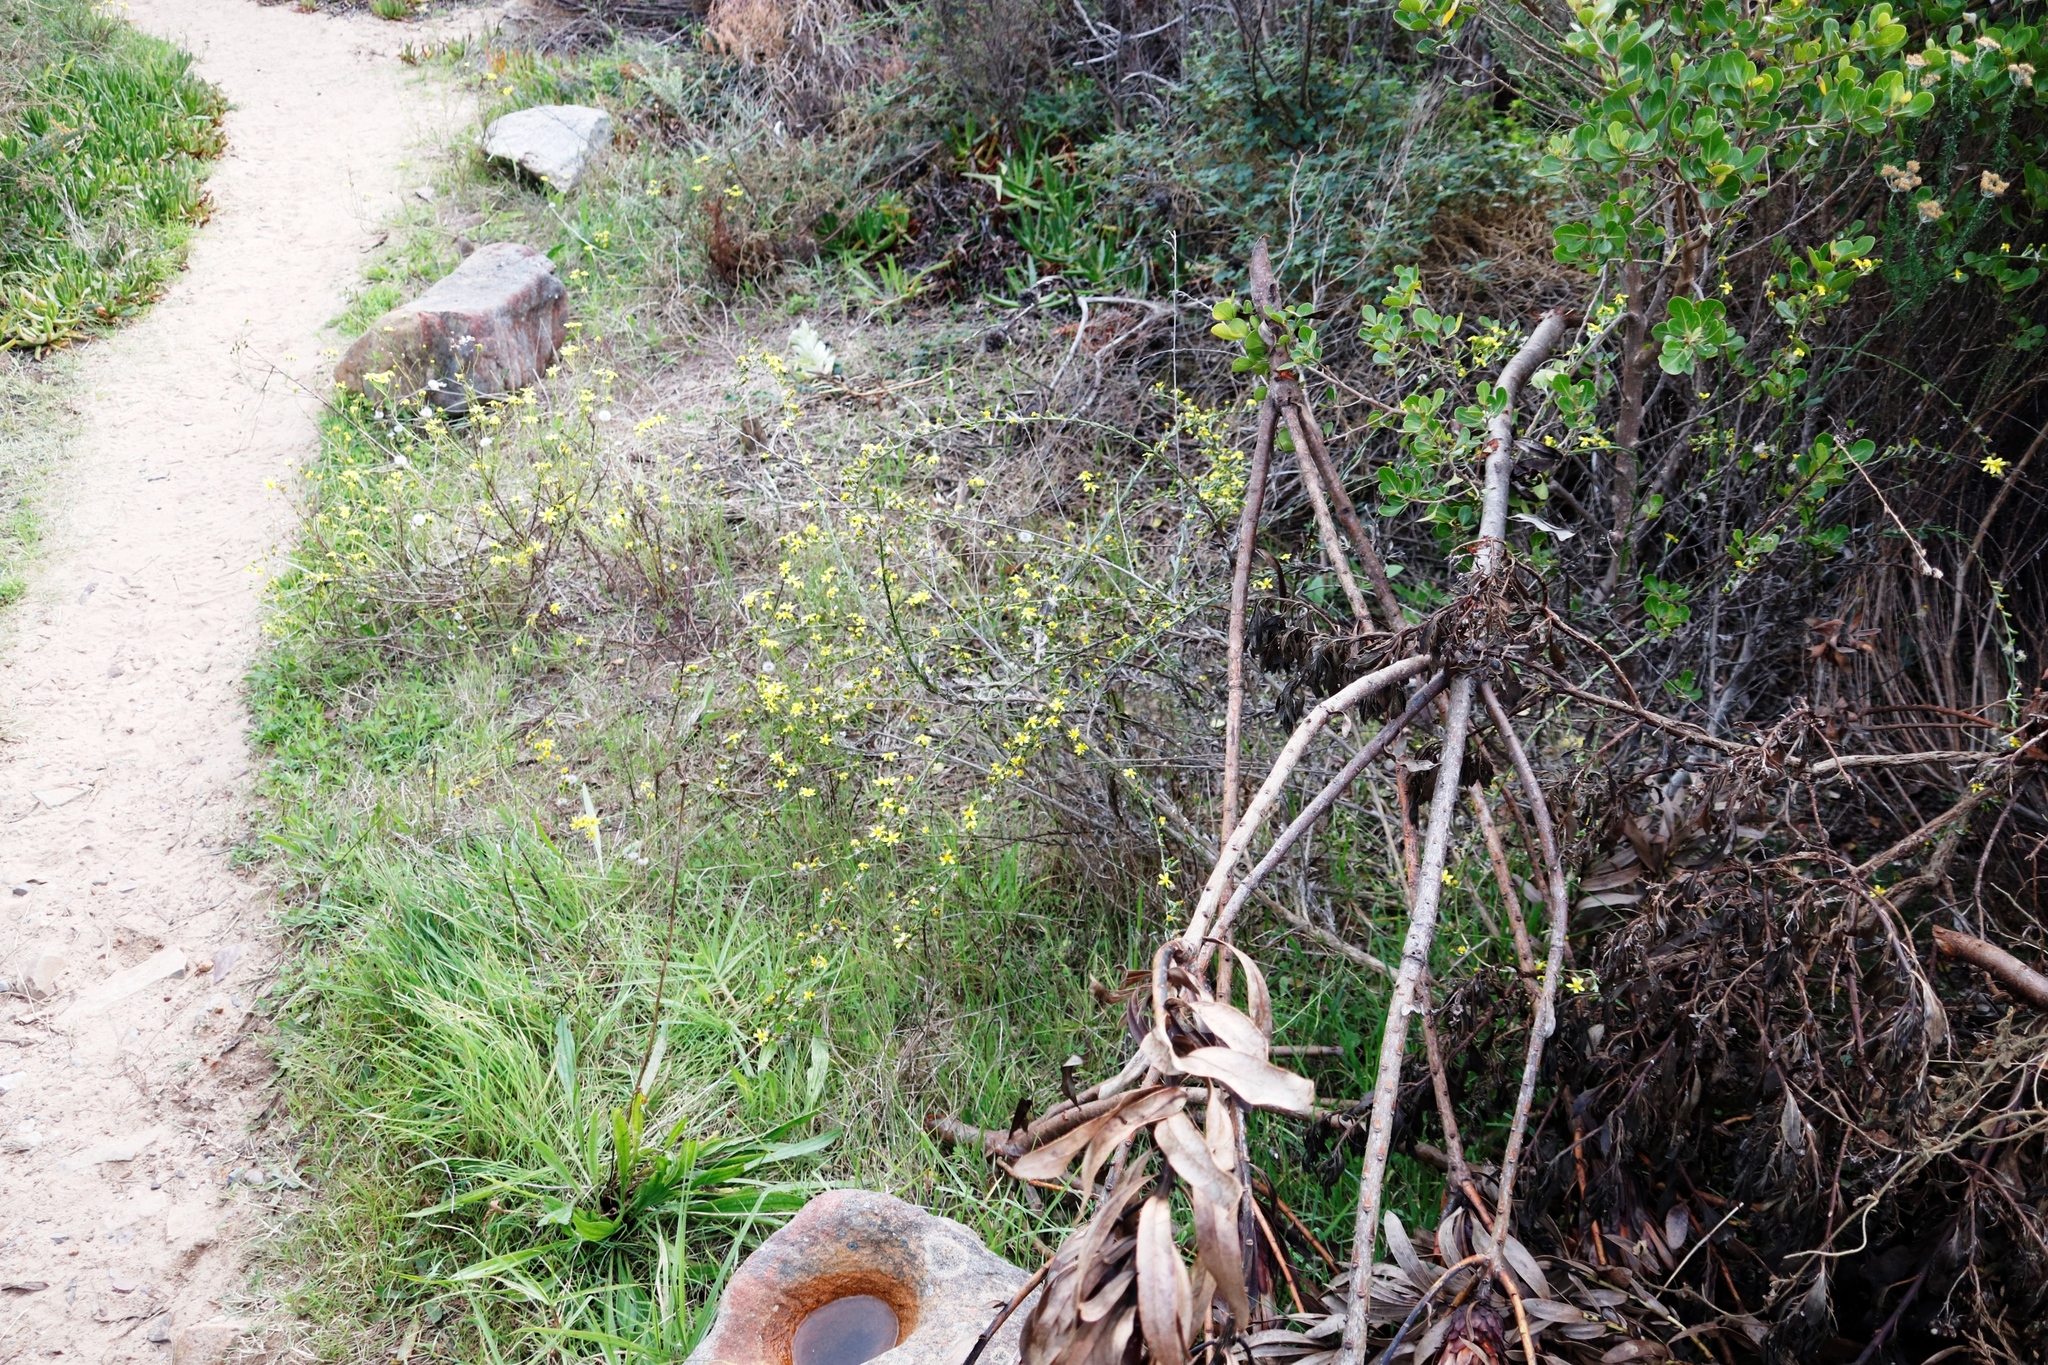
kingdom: Plantae
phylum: Tracheophyta
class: Magnoliopsida
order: Asterales
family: Asteraceae
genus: Senecio
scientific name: Senecio pubigerus
